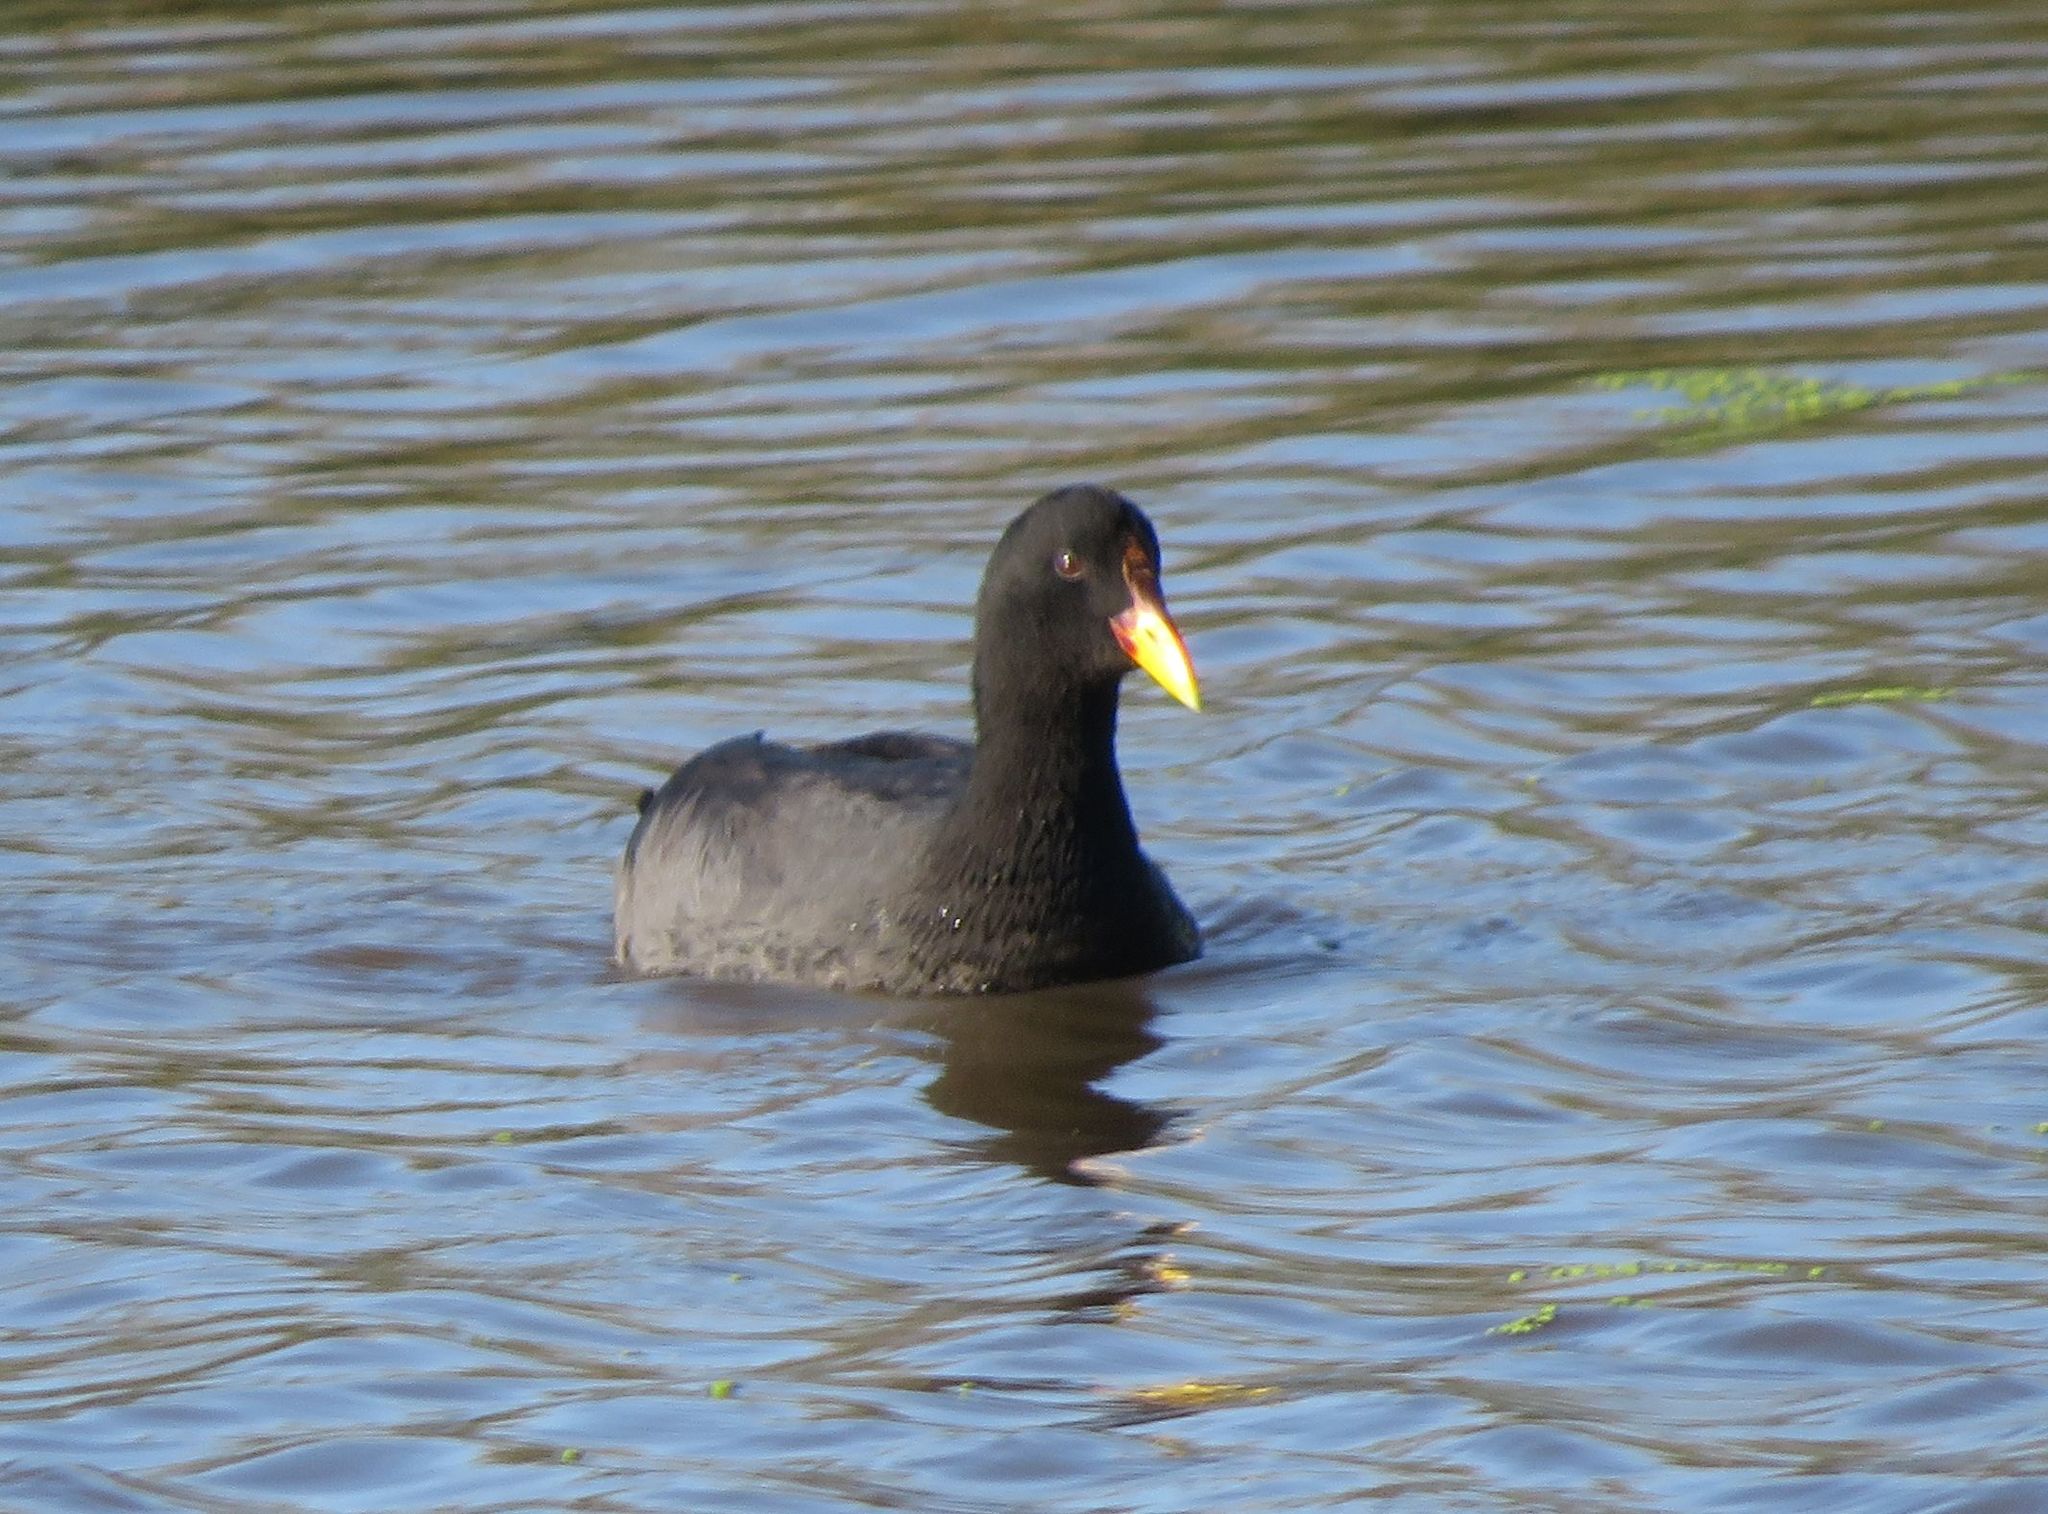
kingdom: Animalia
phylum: Chordata
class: Aves
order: Gruiformes
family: Rallidae
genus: Fulica
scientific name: Fulica rufifrons
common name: Red-fronted coot
